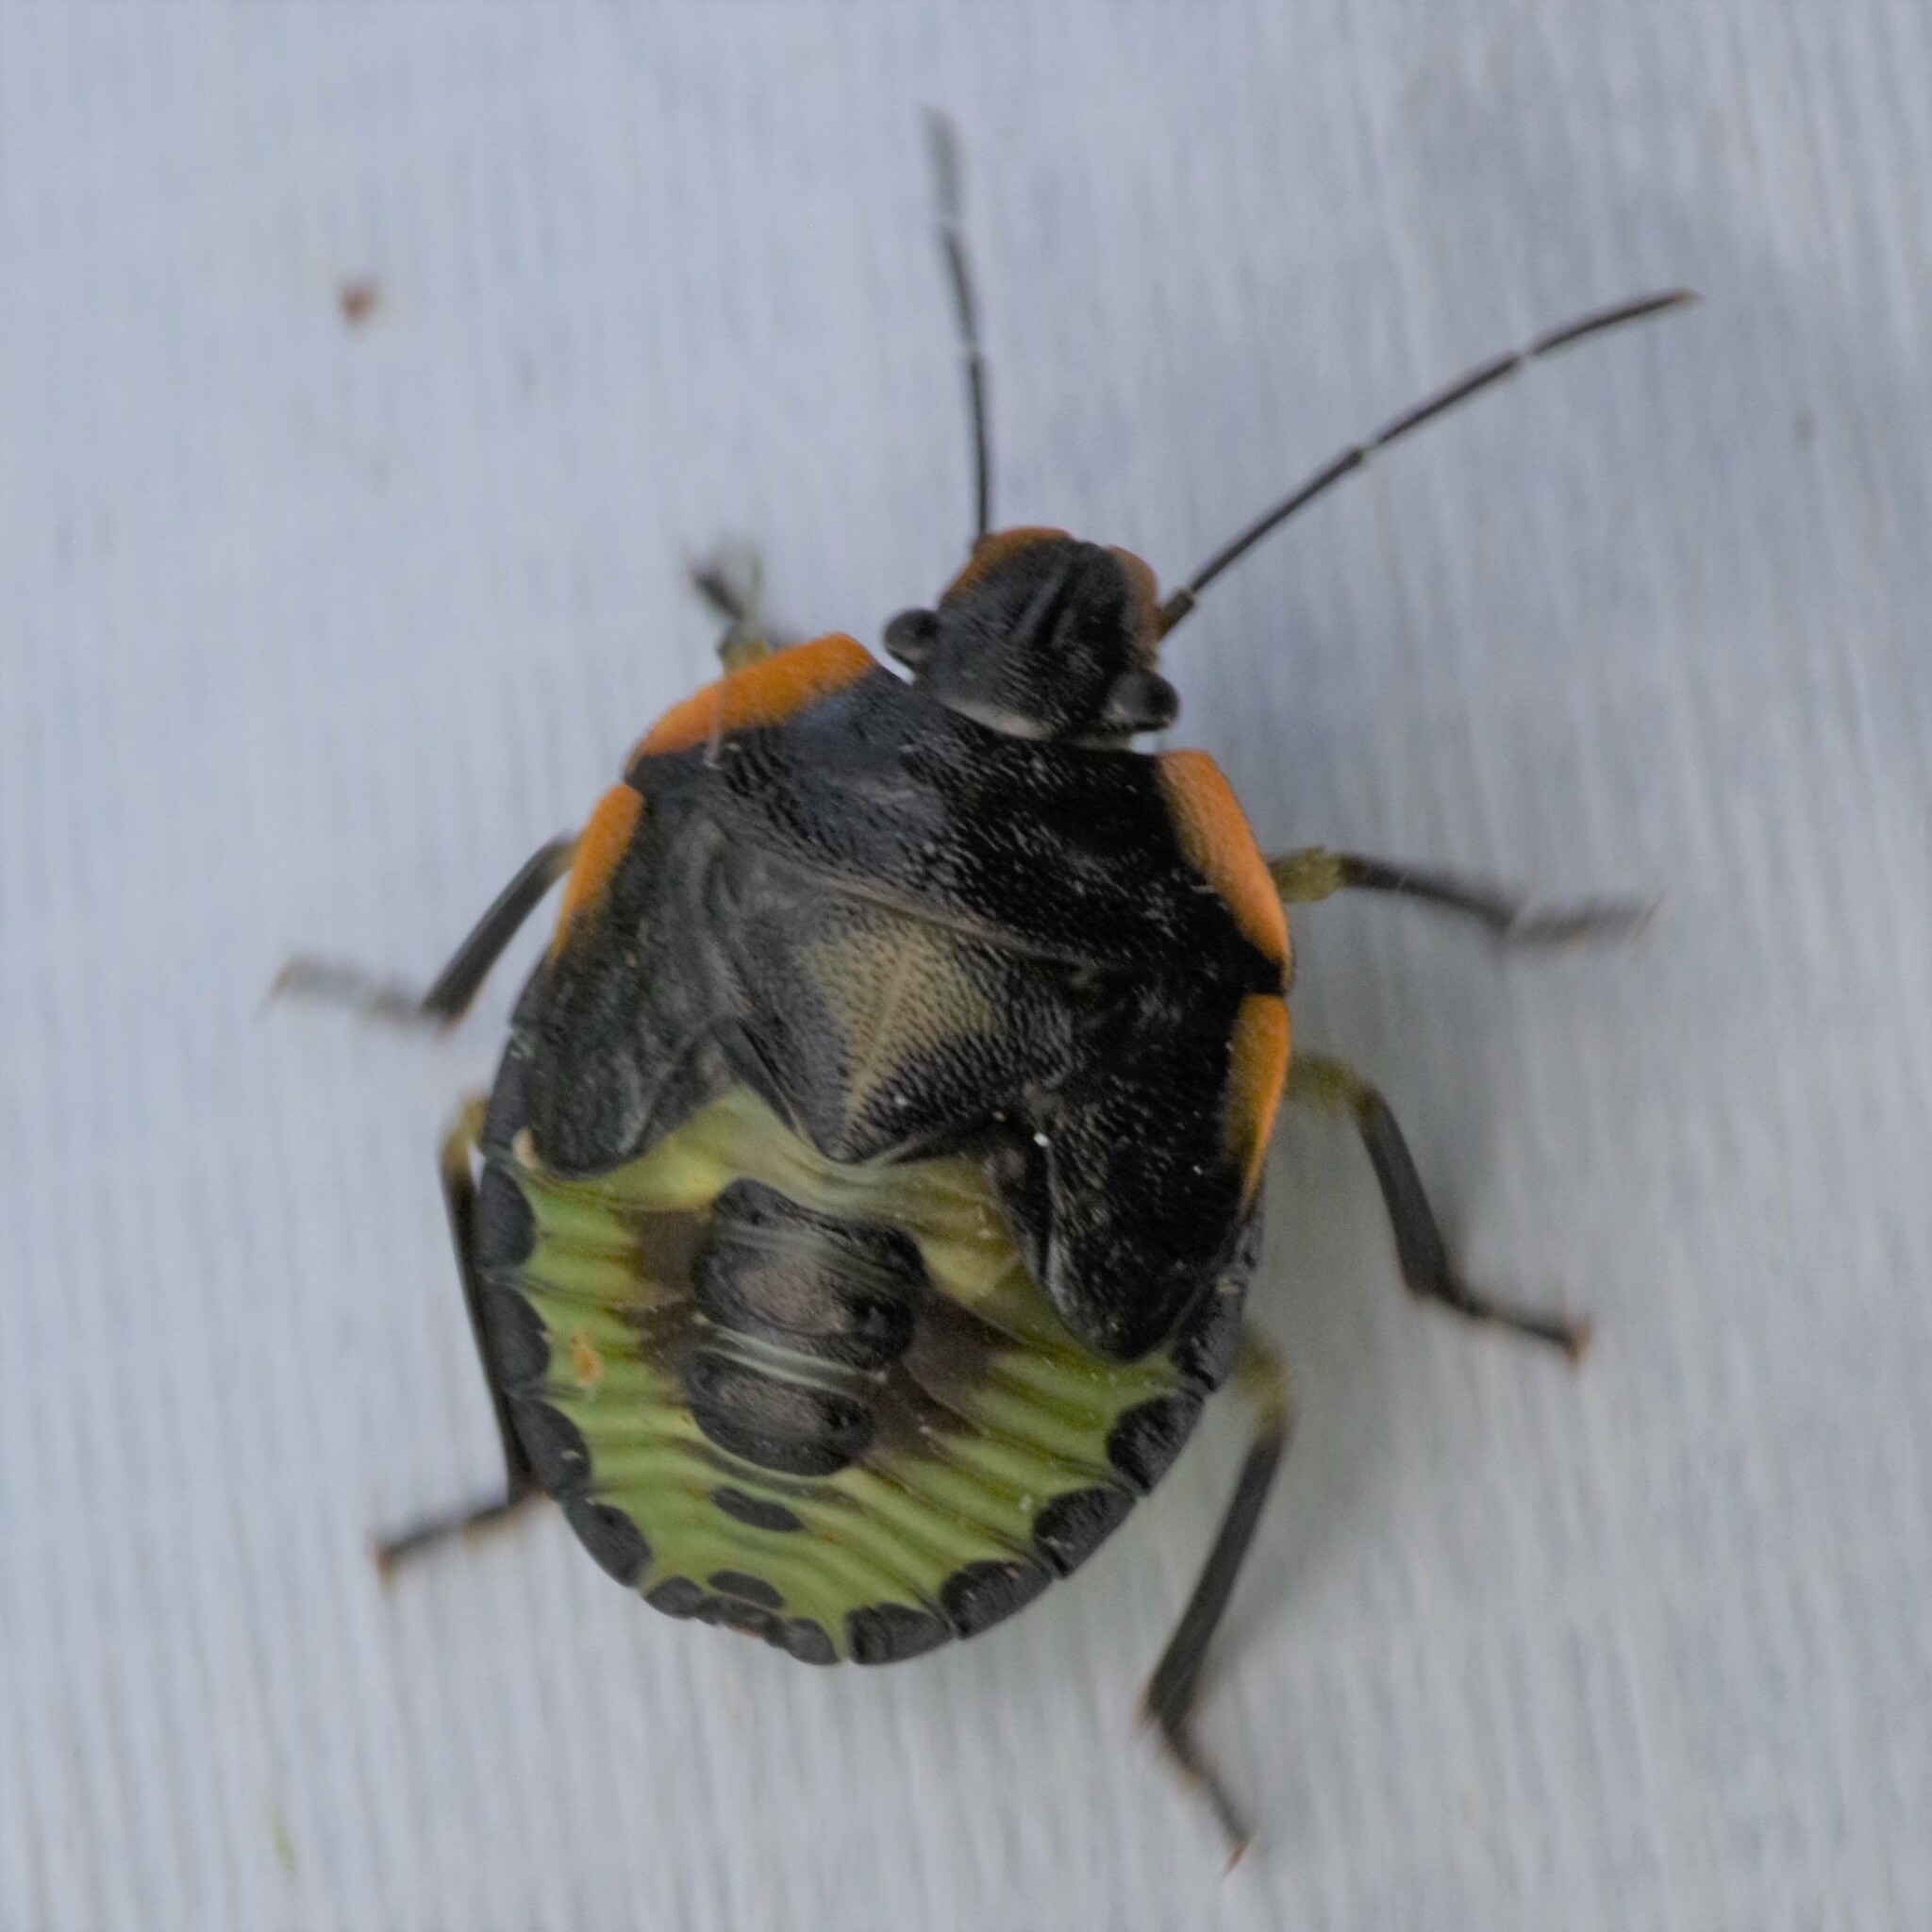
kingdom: Animalia
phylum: Arthropoda
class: Insecta
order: Hemiptera
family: Pentatomidae
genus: Chinavia
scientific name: Chinavia hilaris
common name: Green stink bug
